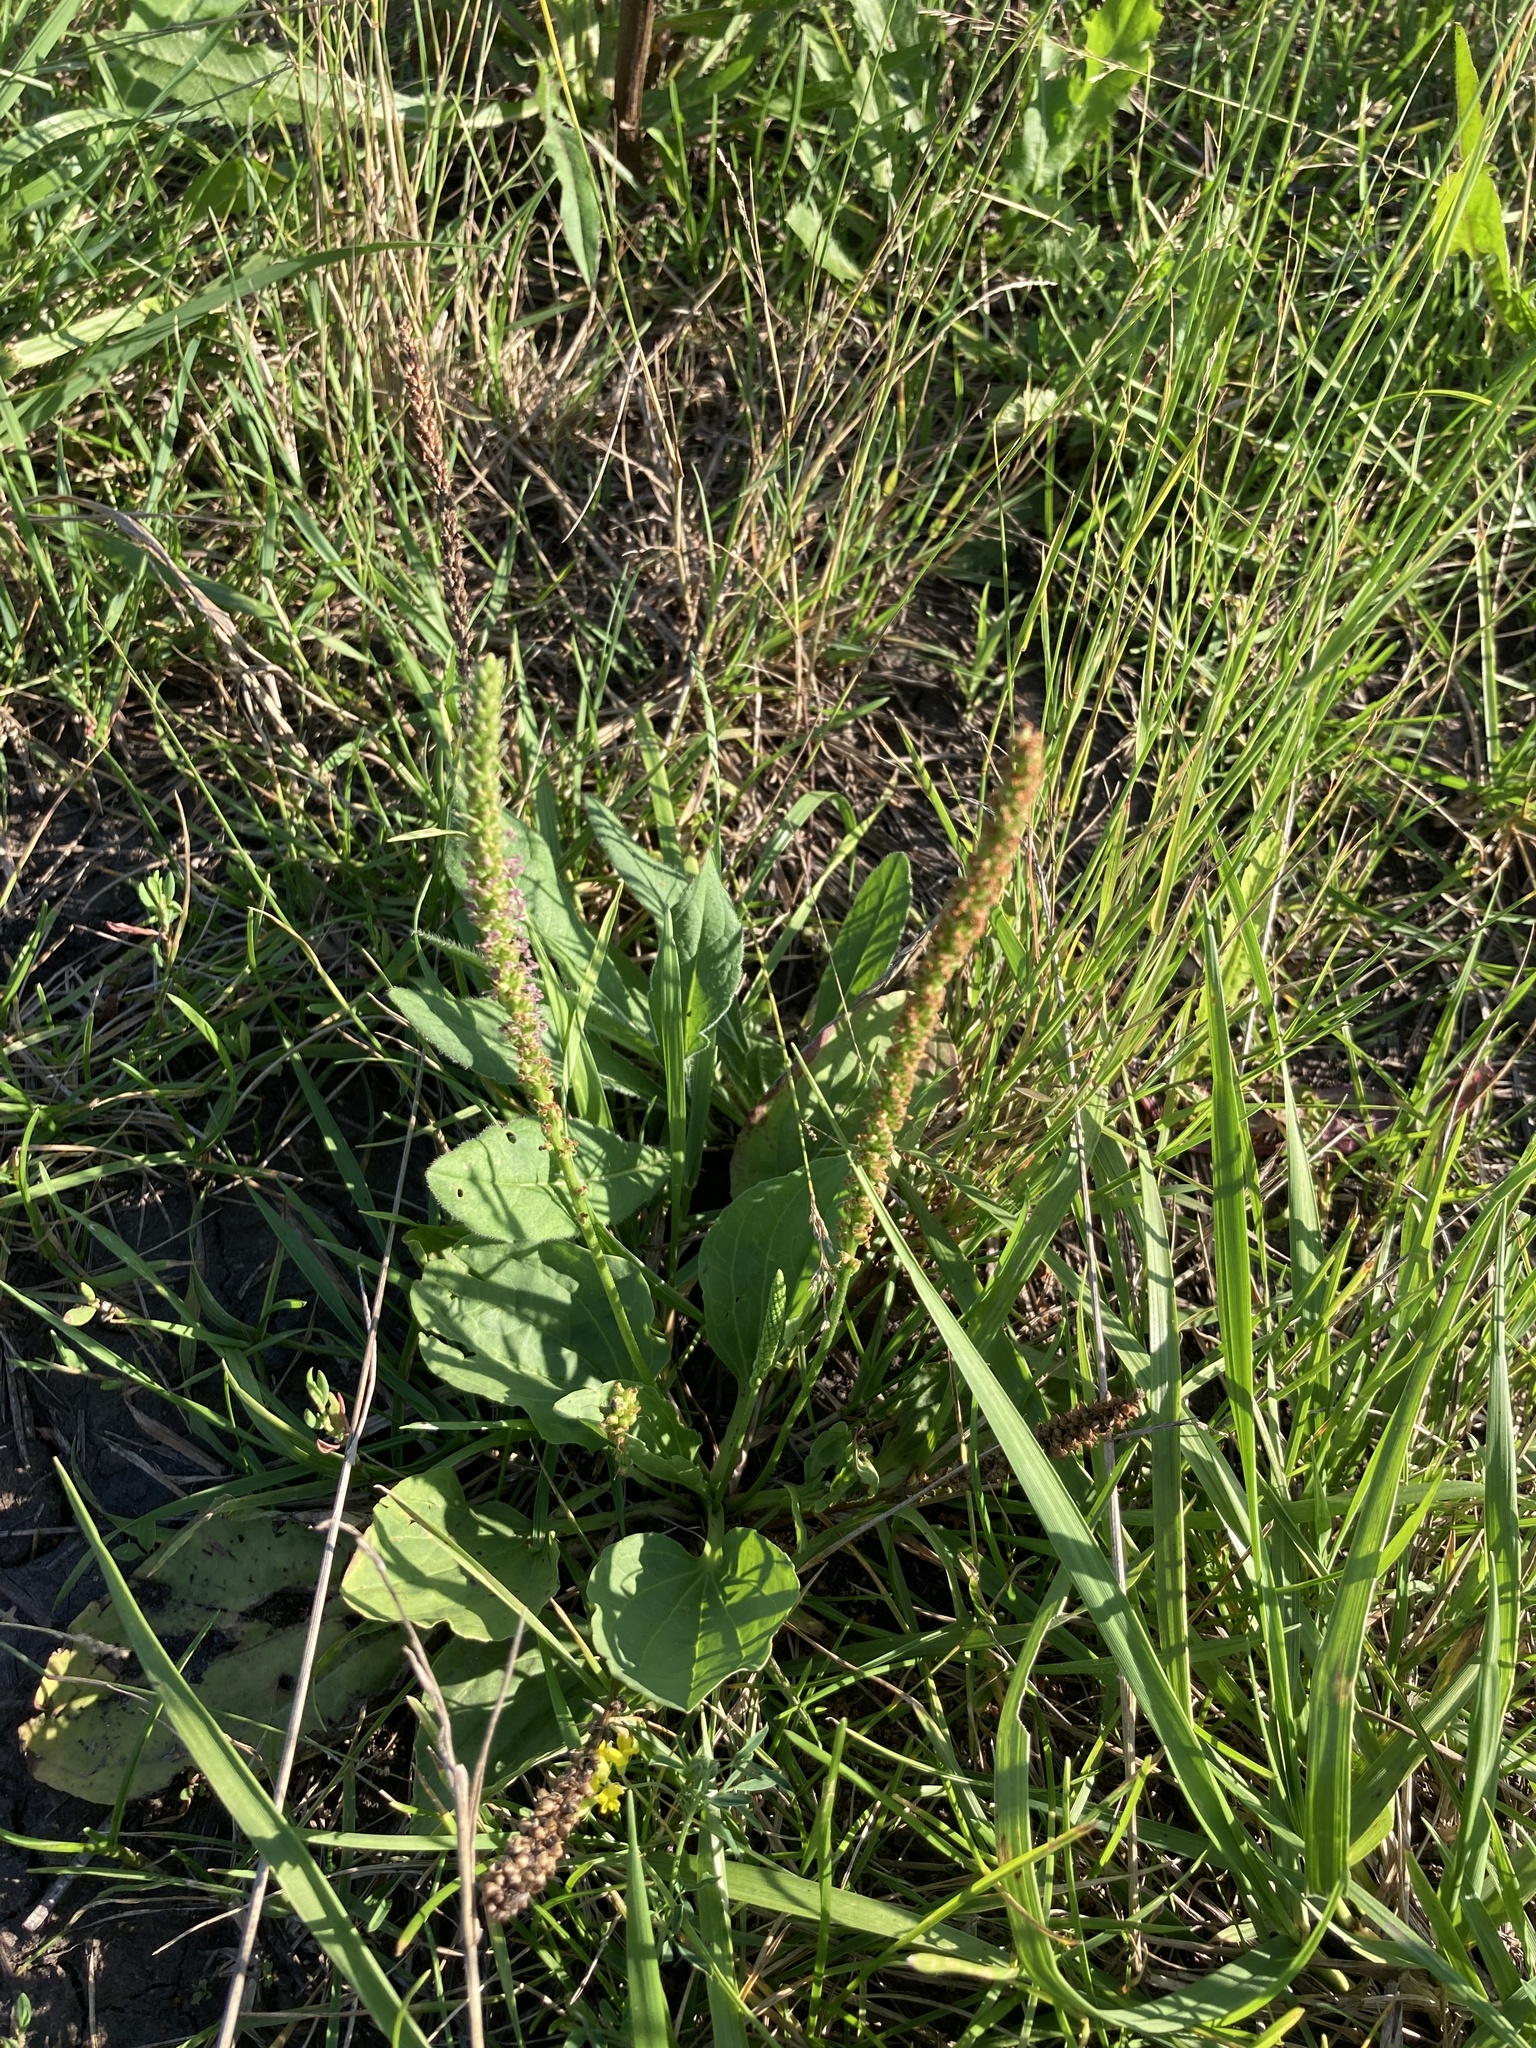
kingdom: Plantae
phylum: Tracheophyta
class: Magnoliopsida
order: Lamiales
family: Plantaginaceae
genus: Plantago
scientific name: Plantago major
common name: Common plantain
